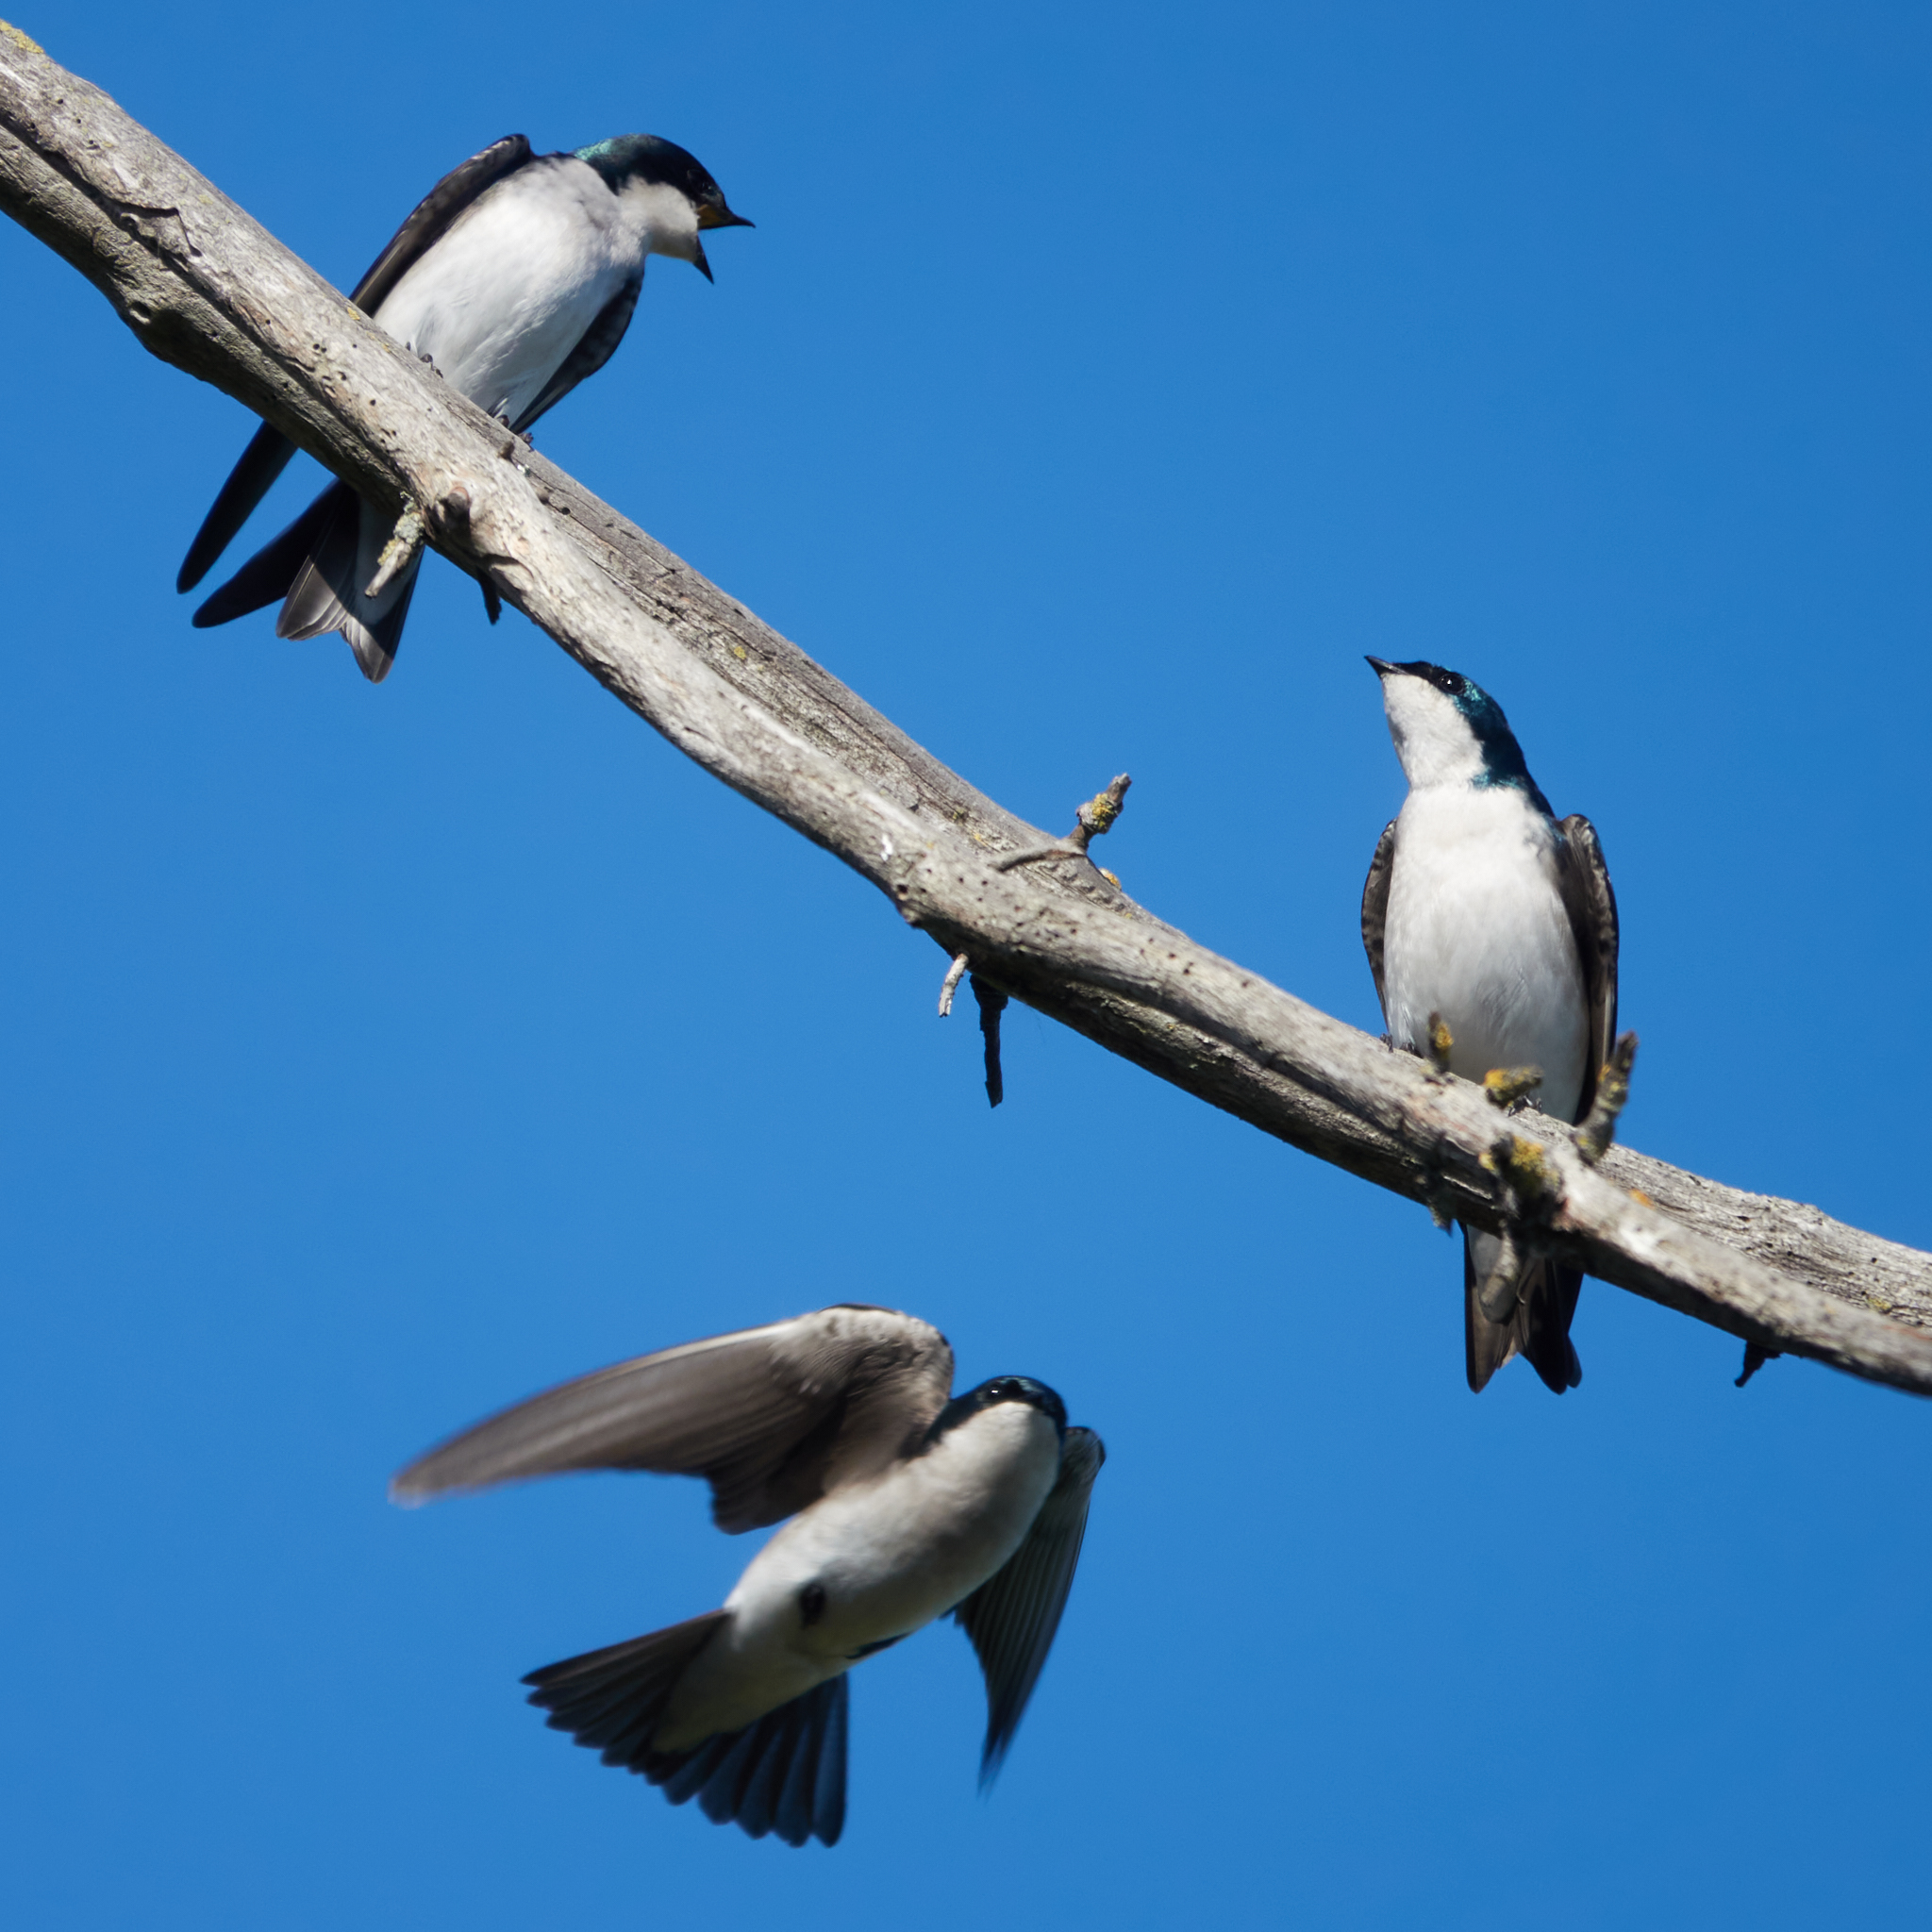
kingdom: Animalia
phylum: Chordata
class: Aves
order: Passeriformes
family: Hirundinidae
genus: Tachycineta
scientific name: Tachycineta bicolor
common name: Tree swallow
